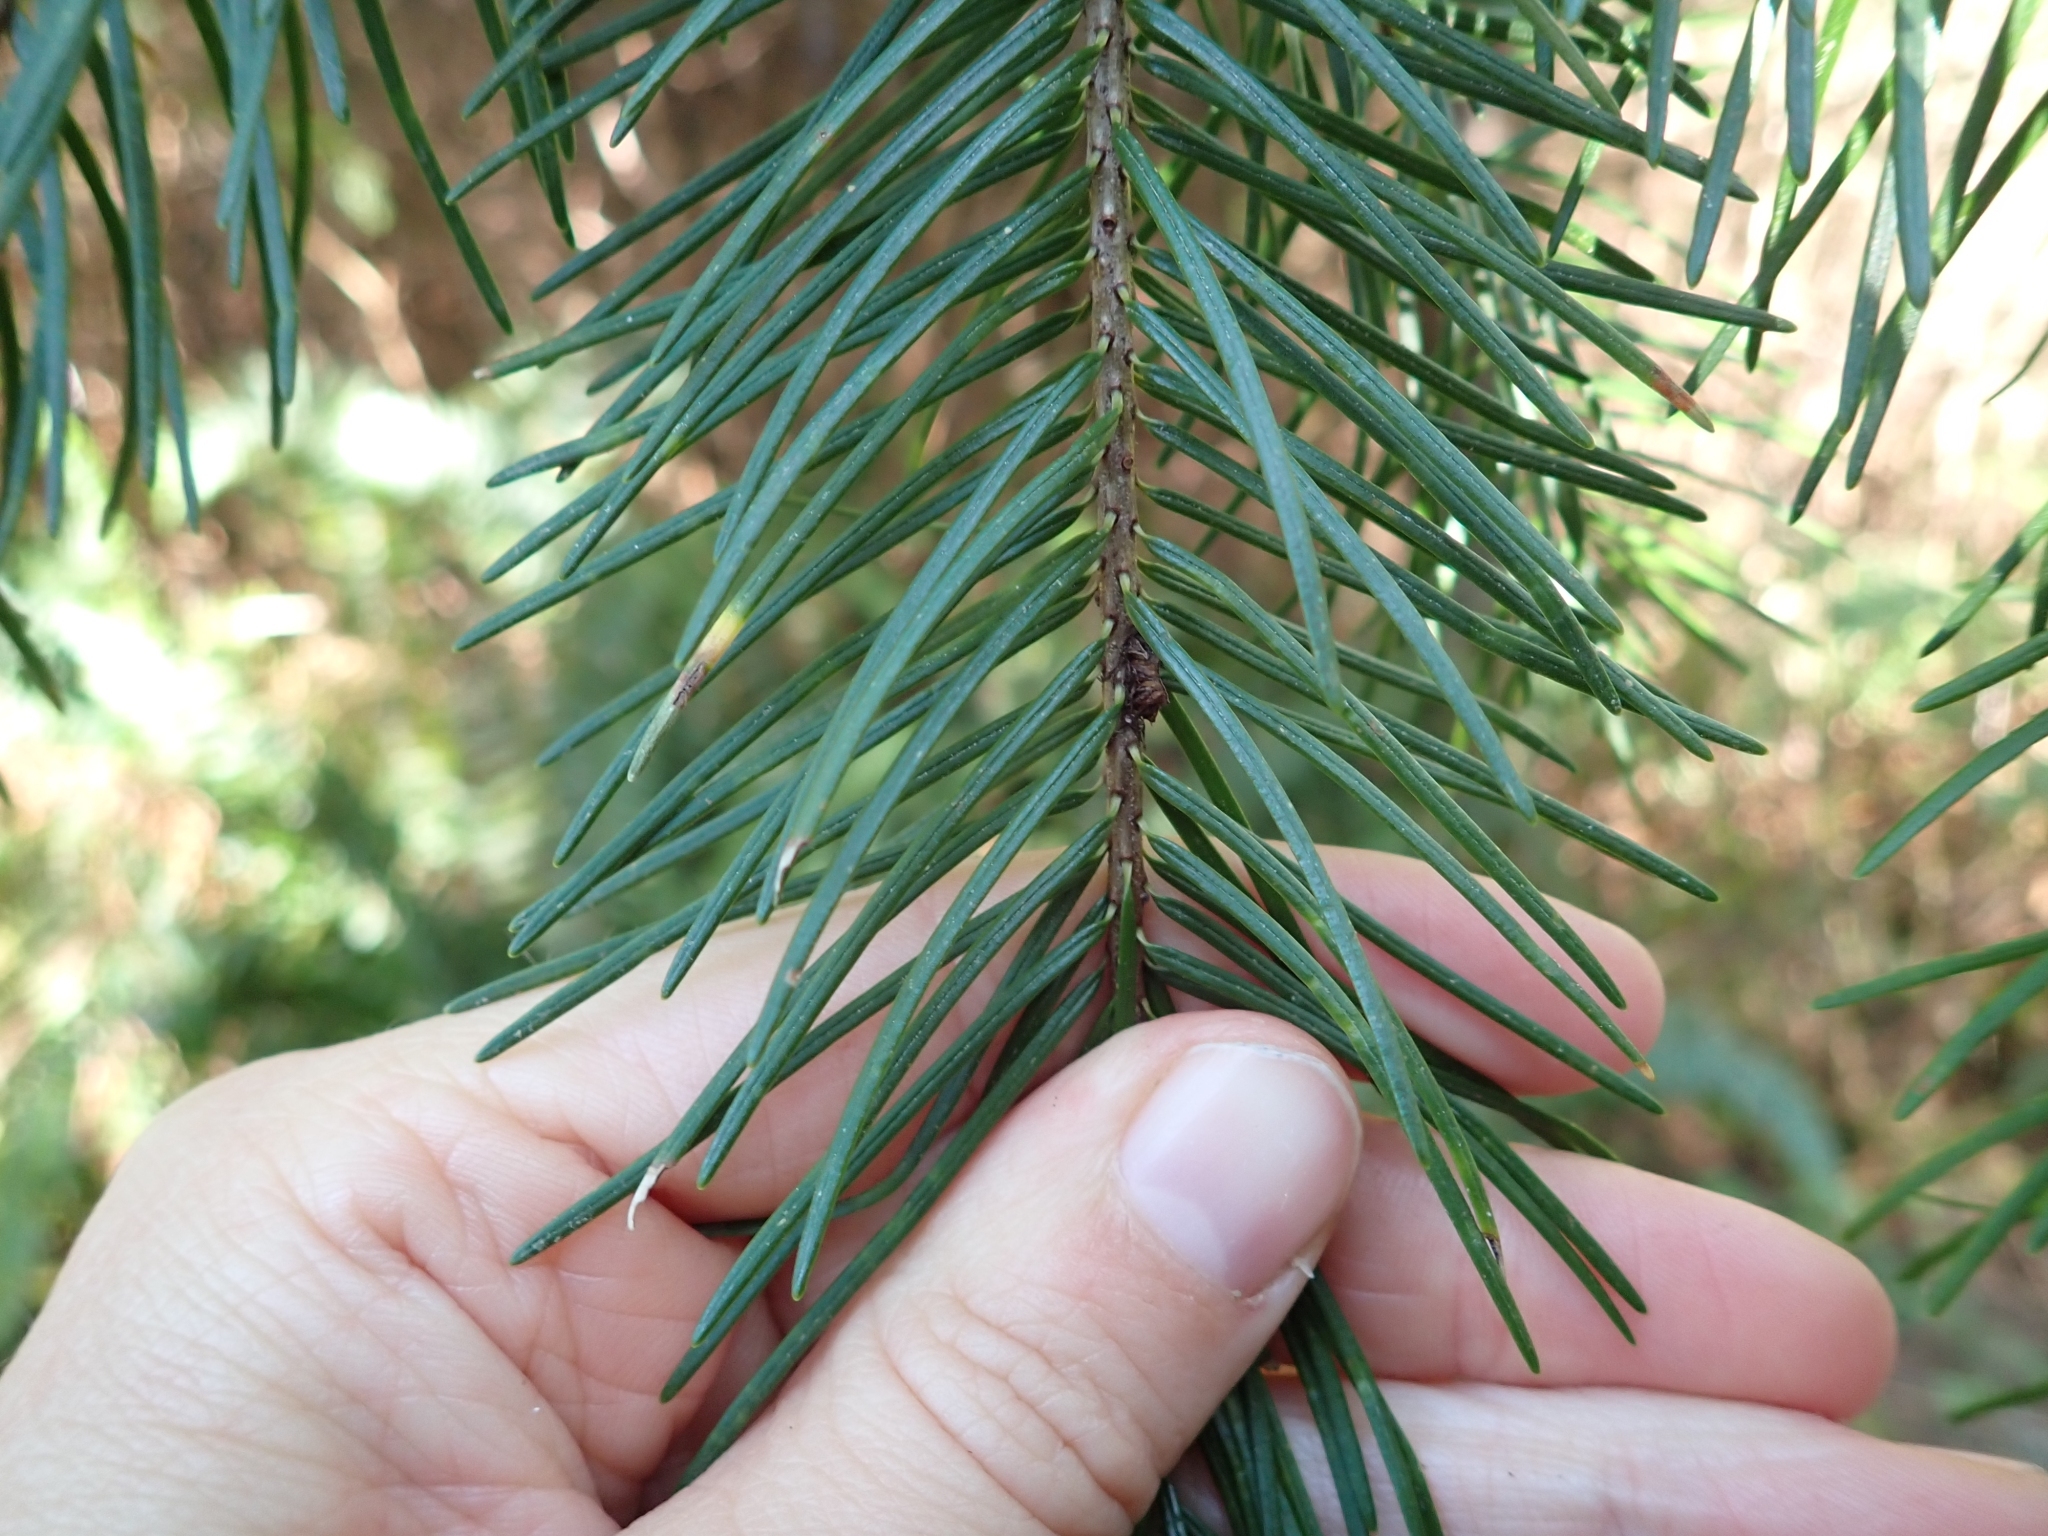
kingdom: Plantae
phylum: Tracheophyta
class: Pinopsida
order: Pinales
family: Pinaceae
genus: Pseudotsuga
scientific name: Pseudotsuga menziesii
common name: Douglas fir
